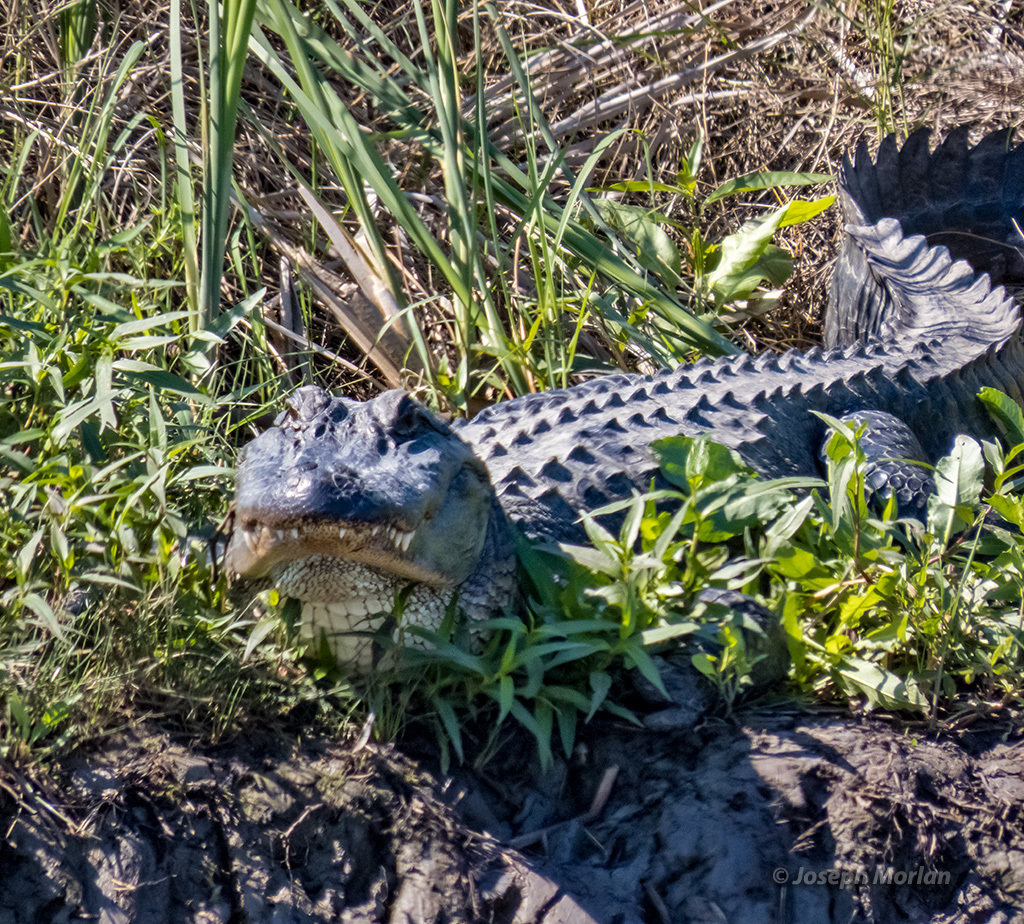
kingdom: Animalia
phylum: Chordata
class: Crocodylia
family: Alligatoridae
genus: Alligator
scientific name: Alligator mississippiensis
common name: American alligator
